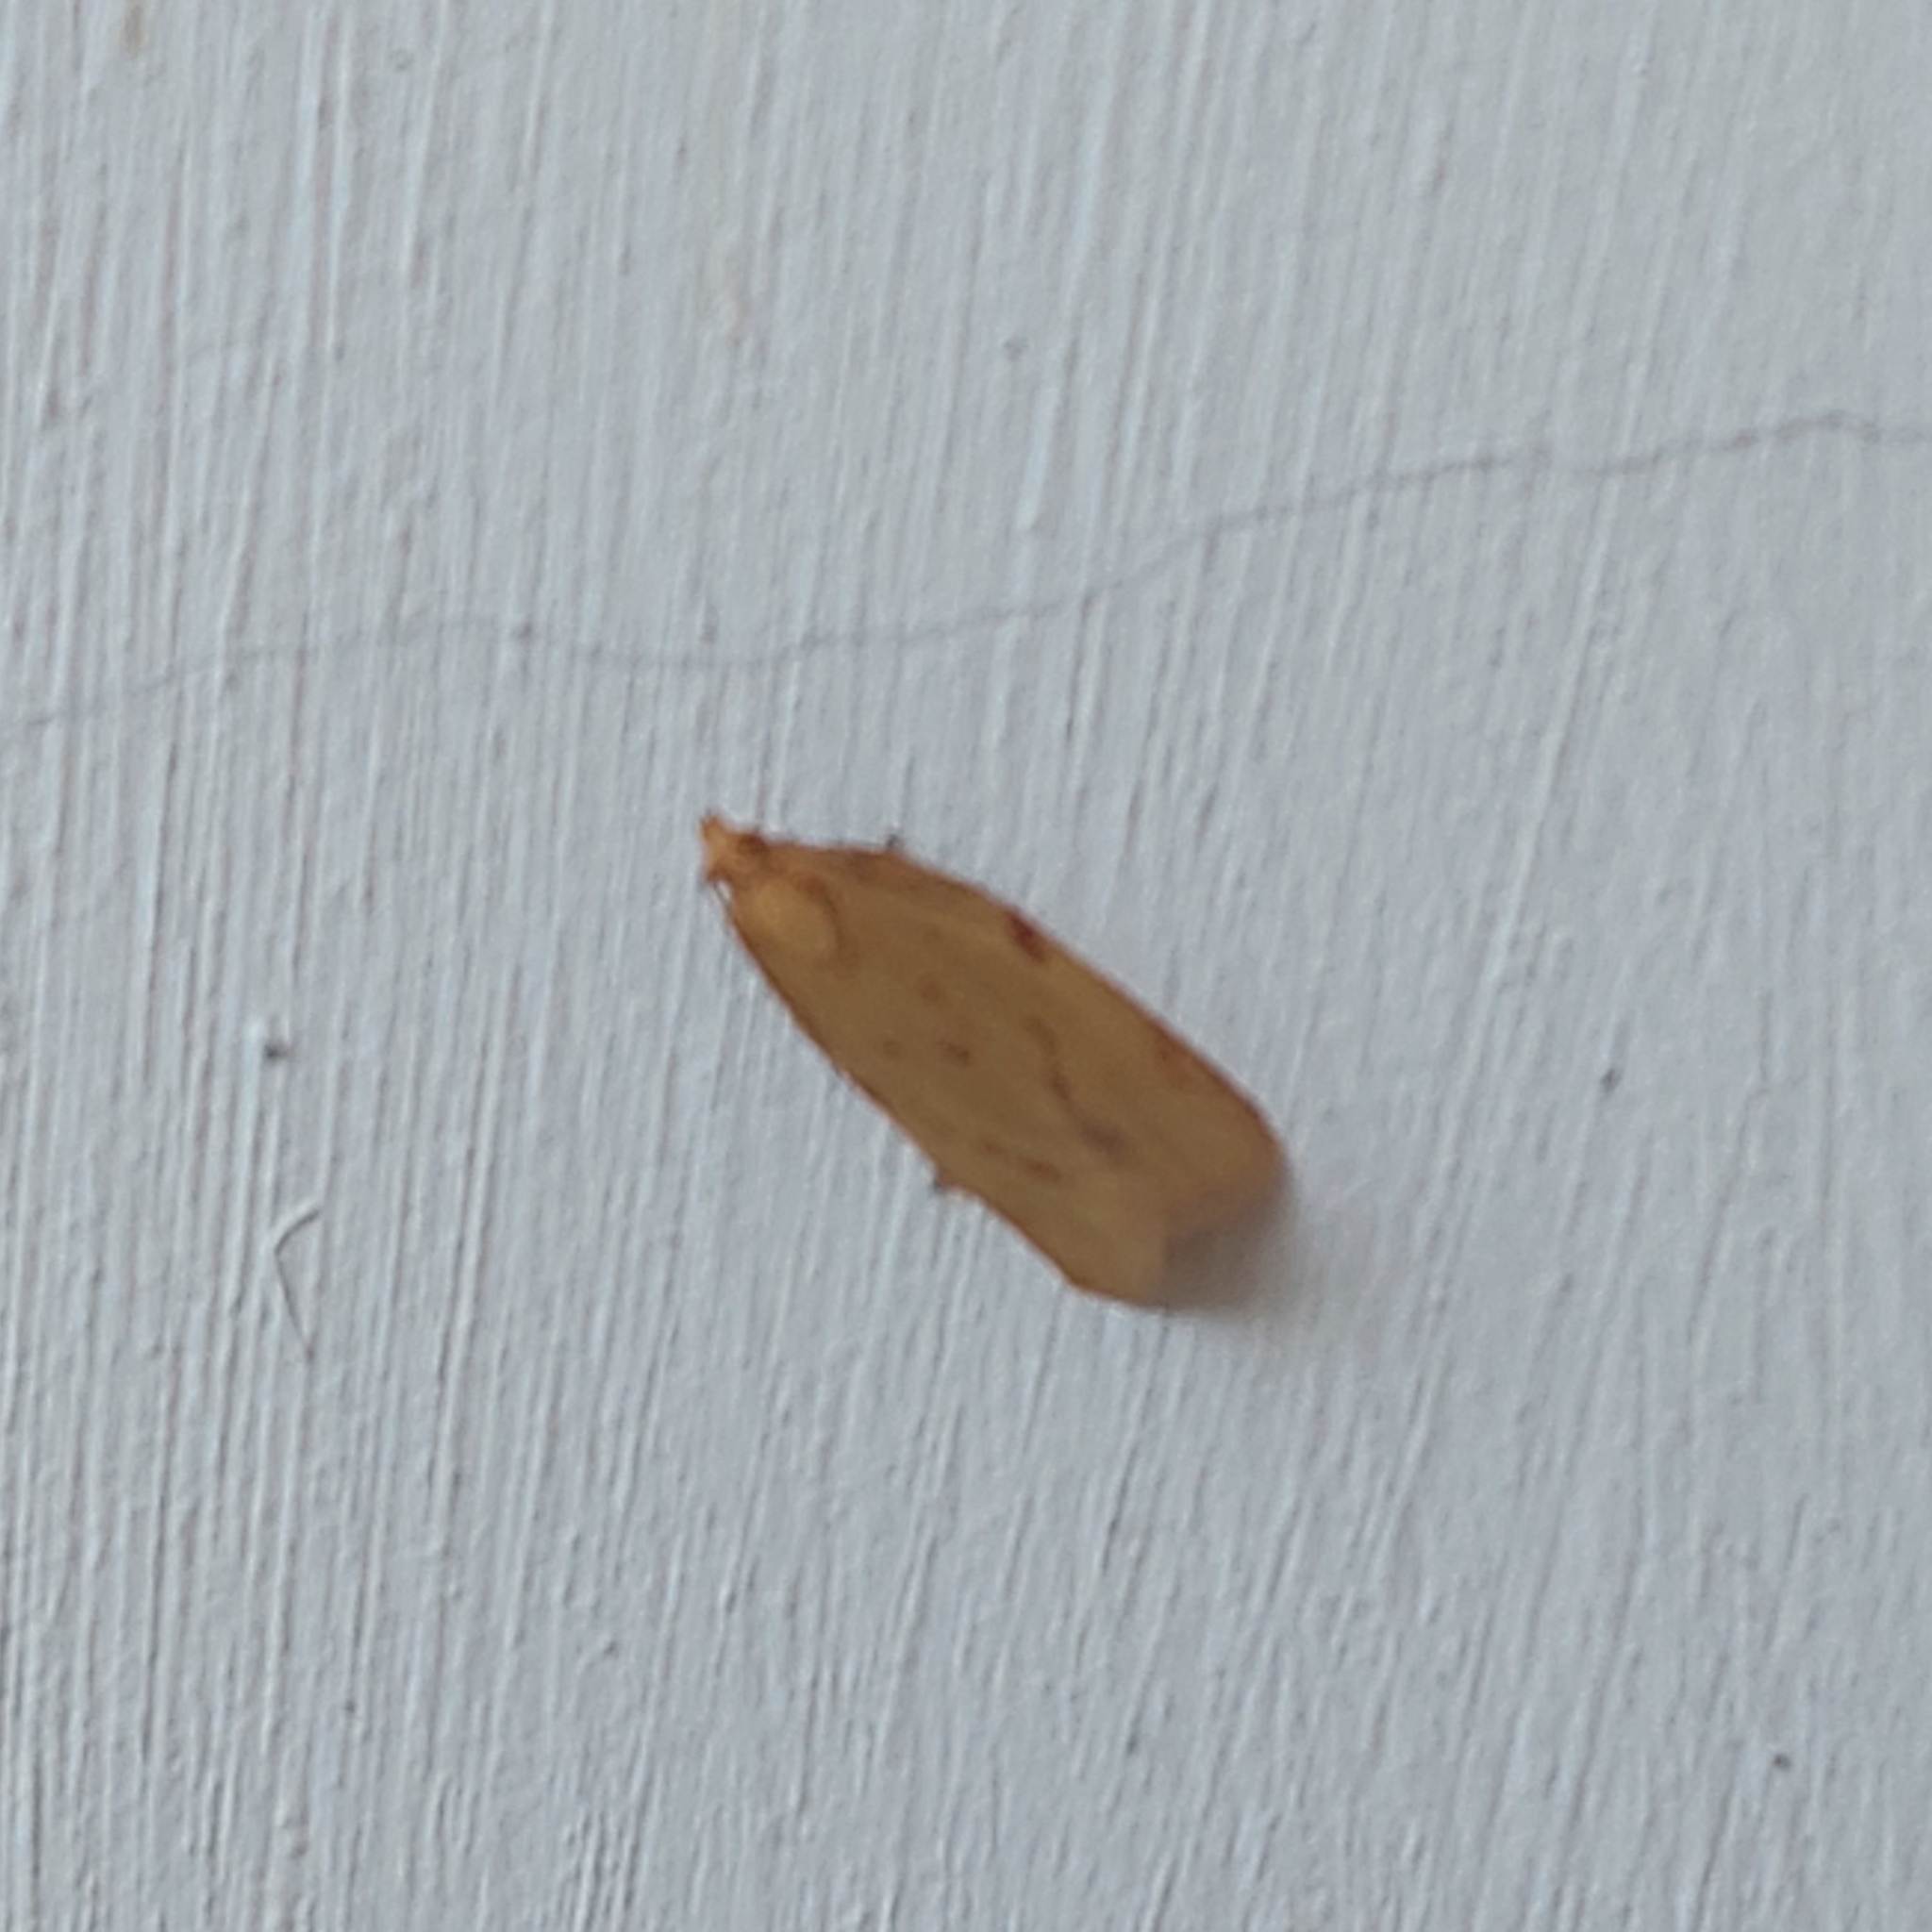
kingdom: Animalia
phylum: Arthropoda
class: Insecta
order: Lepidoptera
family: Tortricidae
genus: Clepsis
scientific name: Clepsis pallidana
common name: Sheep's-bit conch
